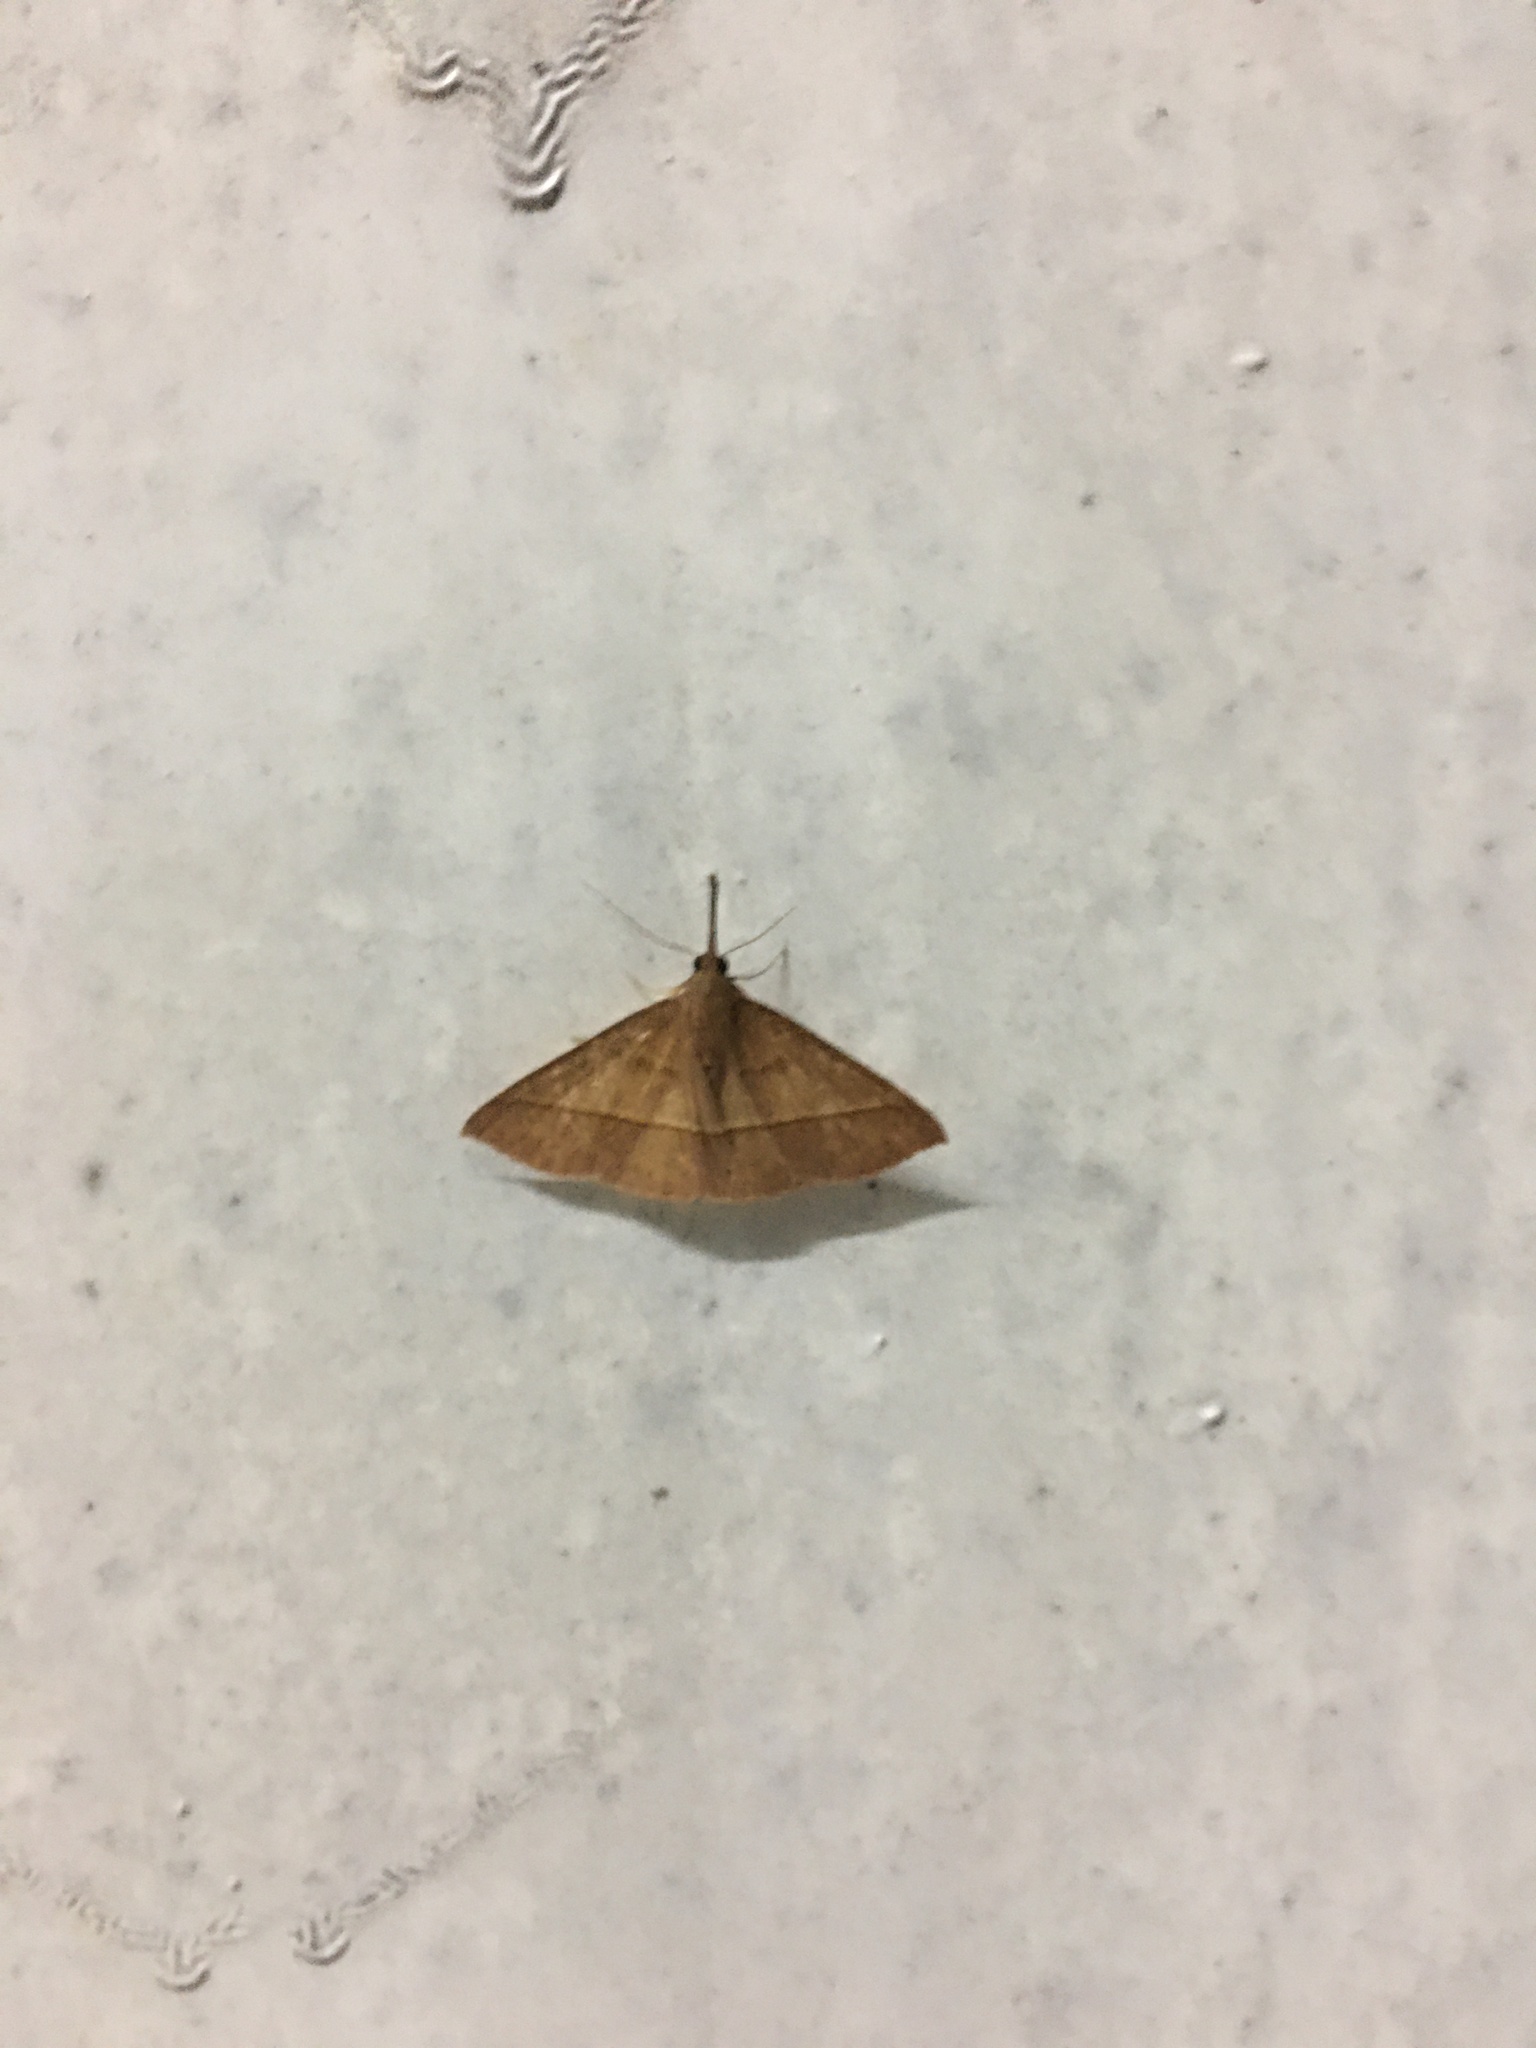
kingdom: Animalia
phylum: Arthropoda
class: Insecta
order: Lepidoptera
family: Erebidae
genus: Marapana
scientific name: Marapana pulverata
